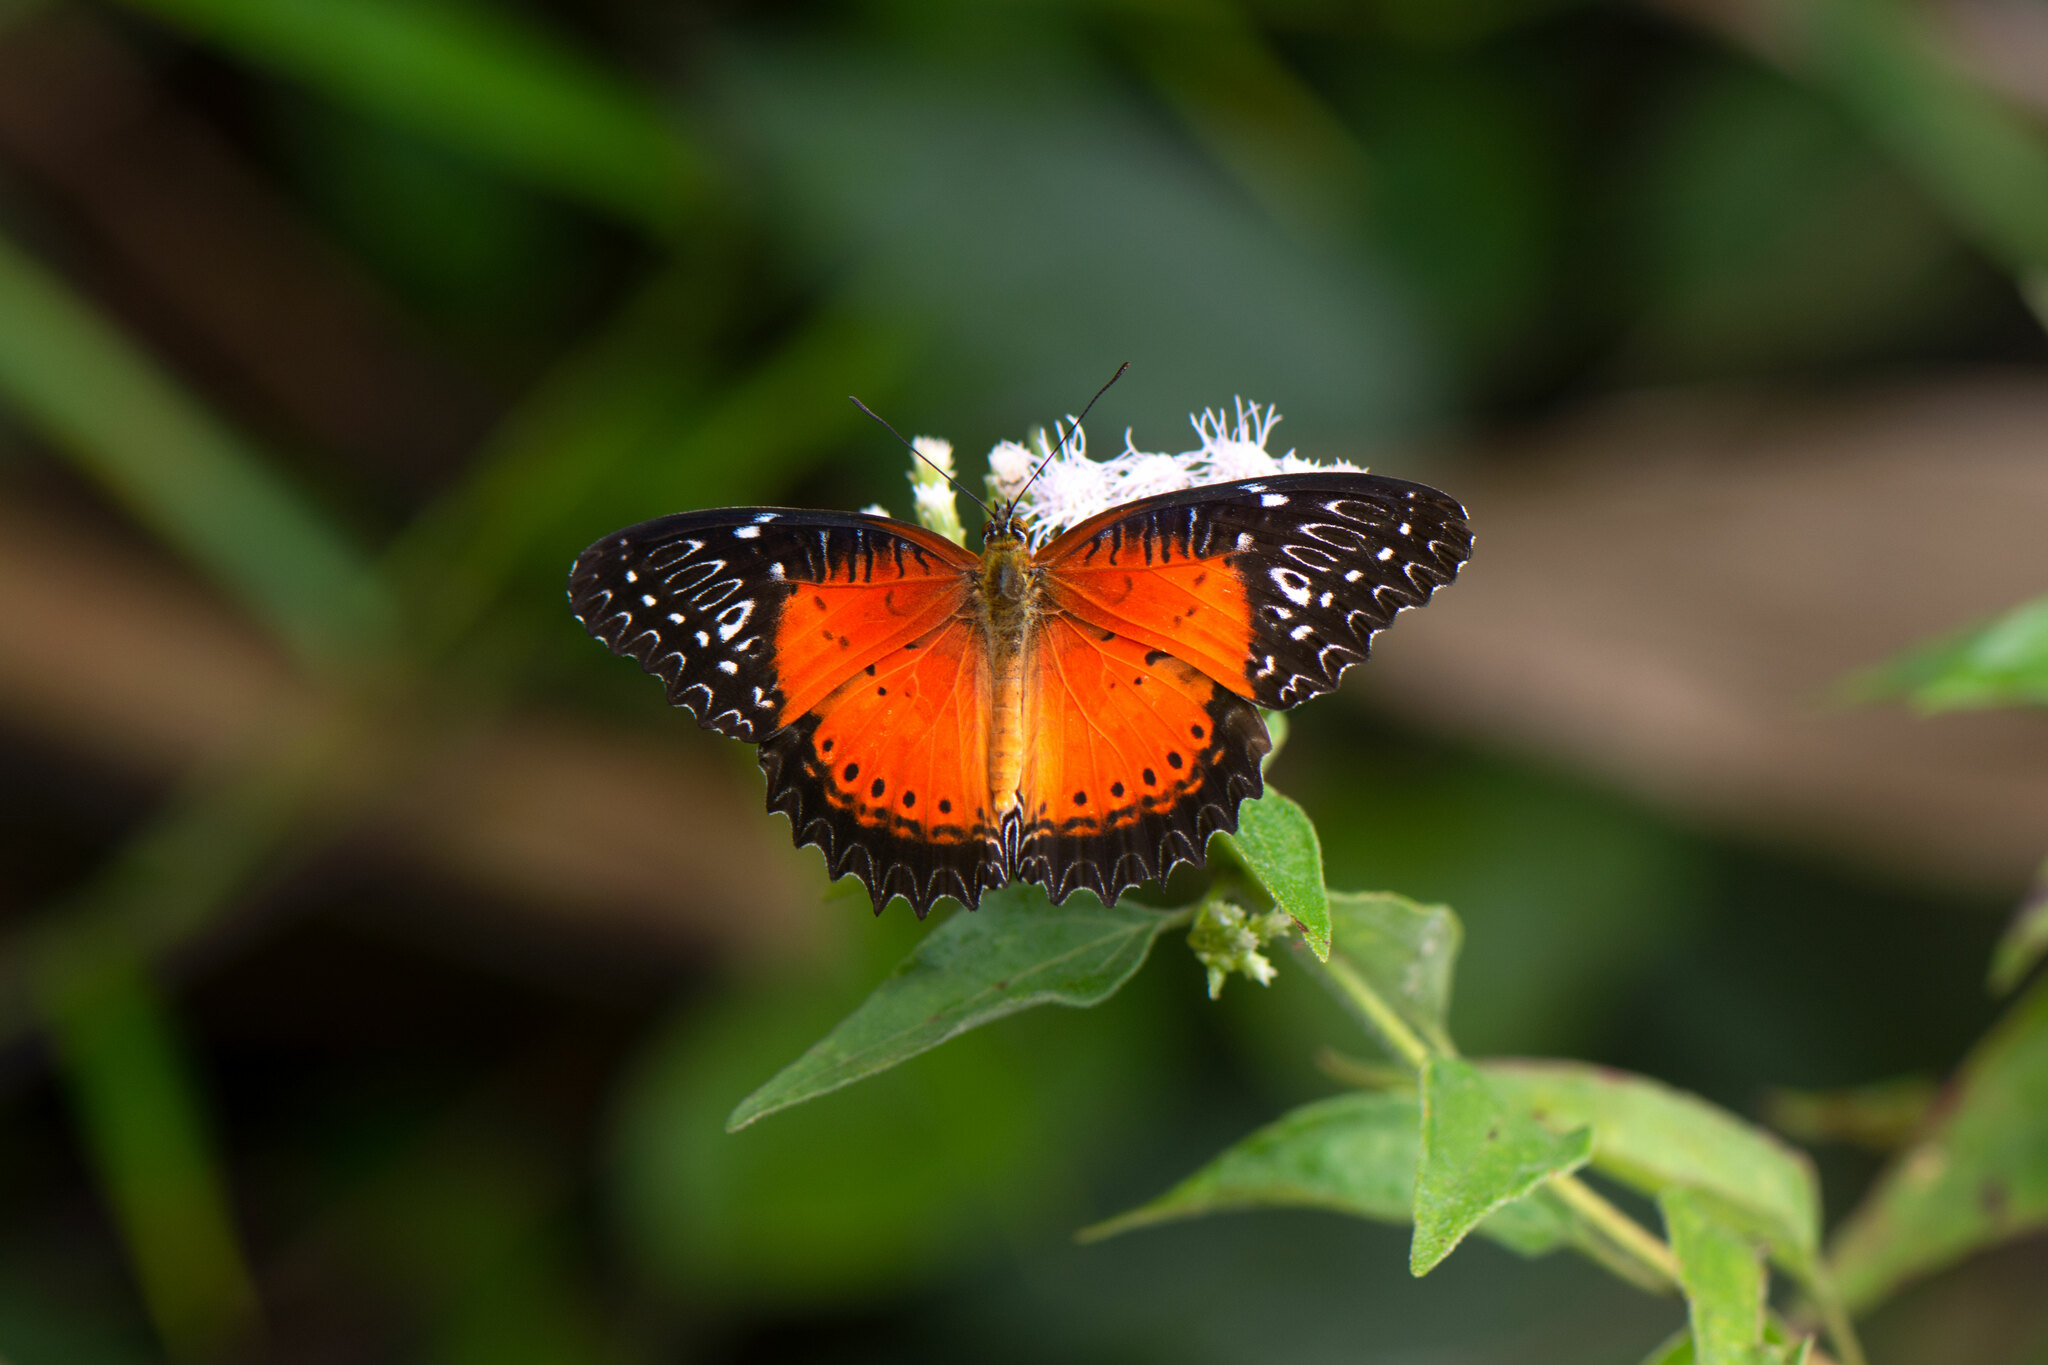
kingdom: Animalia
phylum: Arthropoda
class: Insecta
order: Lepidoptera
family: Nymphalidae
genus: Cethosia
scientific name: Cethosia biblis
